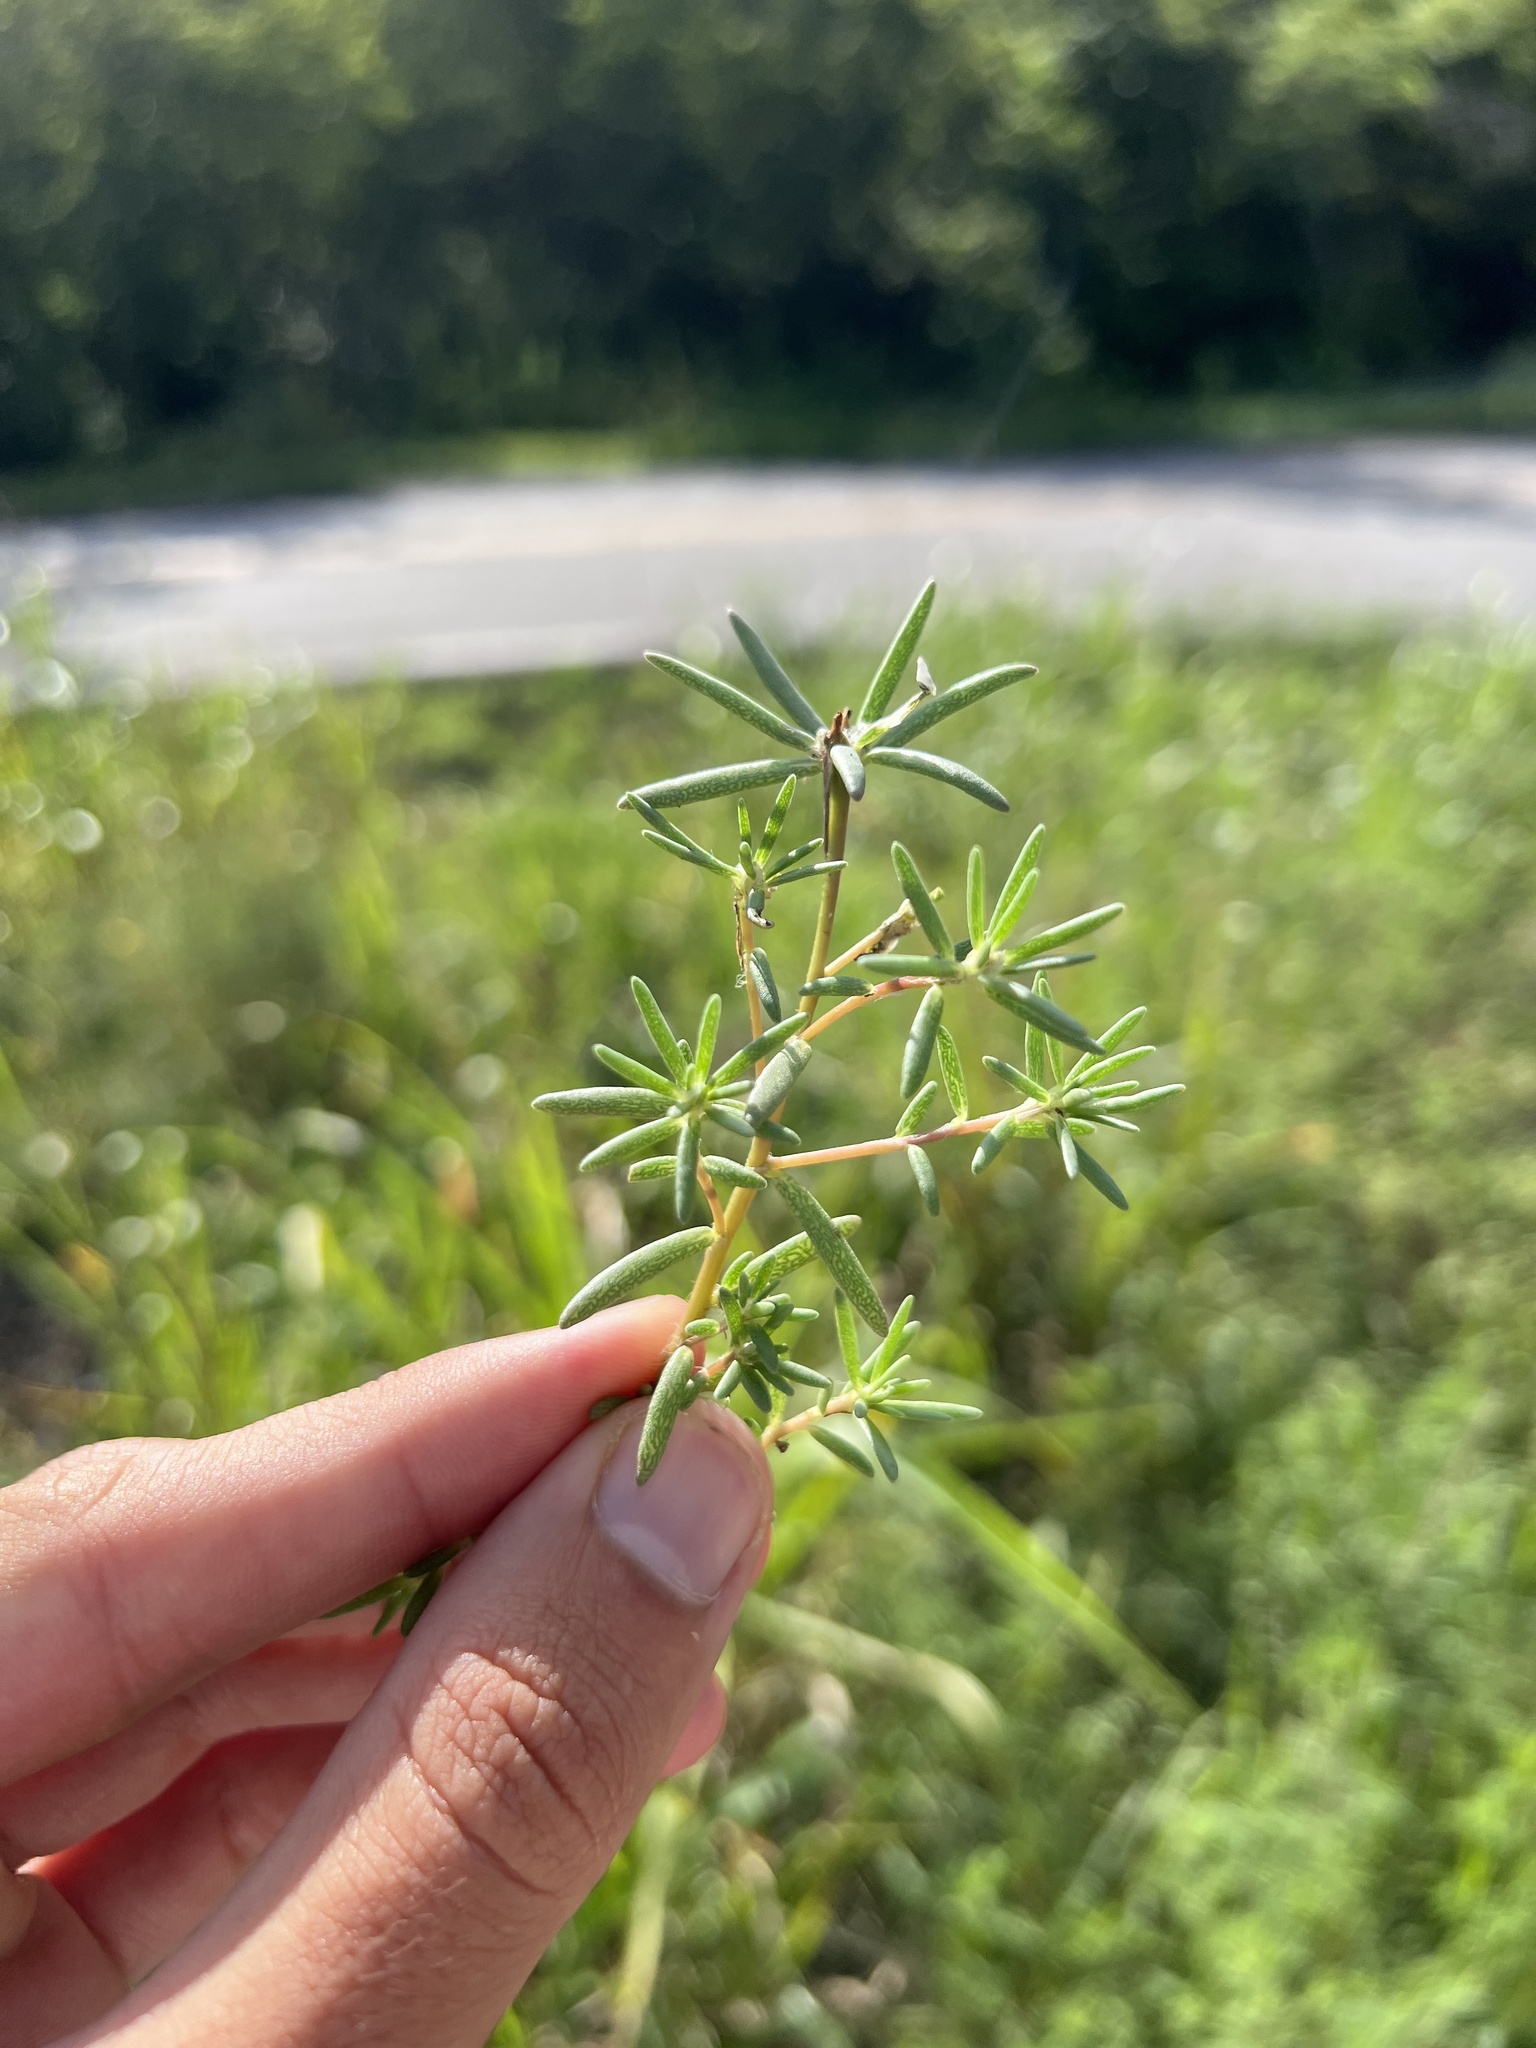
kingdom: Plantae
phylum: Tracheophyta
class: Magnoliopsida
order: Caryophyllales
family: Portulacaceae
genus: Portulaca
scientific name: Portulaca pilosa
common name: Kiss me quick
